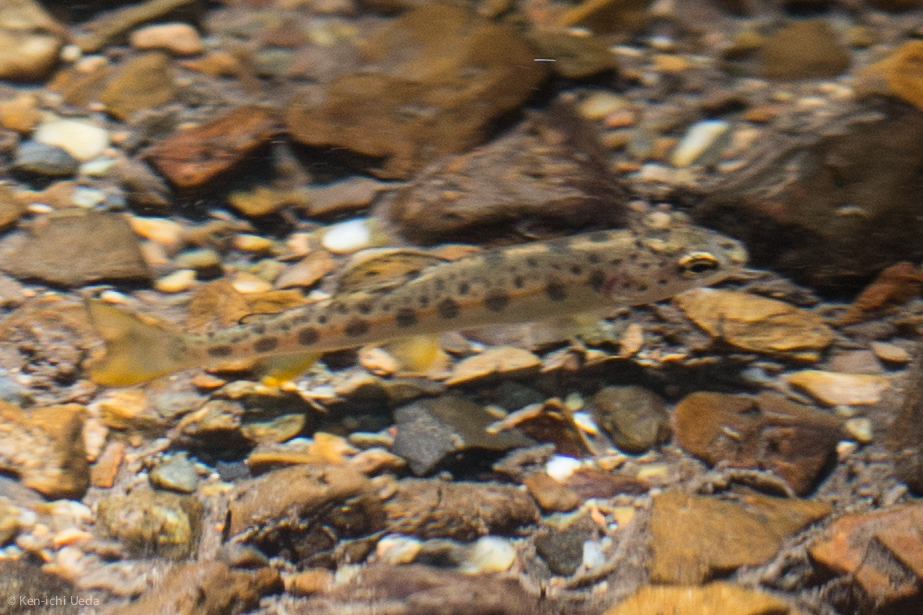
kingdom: Animalia
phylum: Chordata
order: Salmoniformes
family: Salmonidae
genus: Oncorhynchus
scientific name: Oncorhynchus mykiss
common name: Rainbow trout
